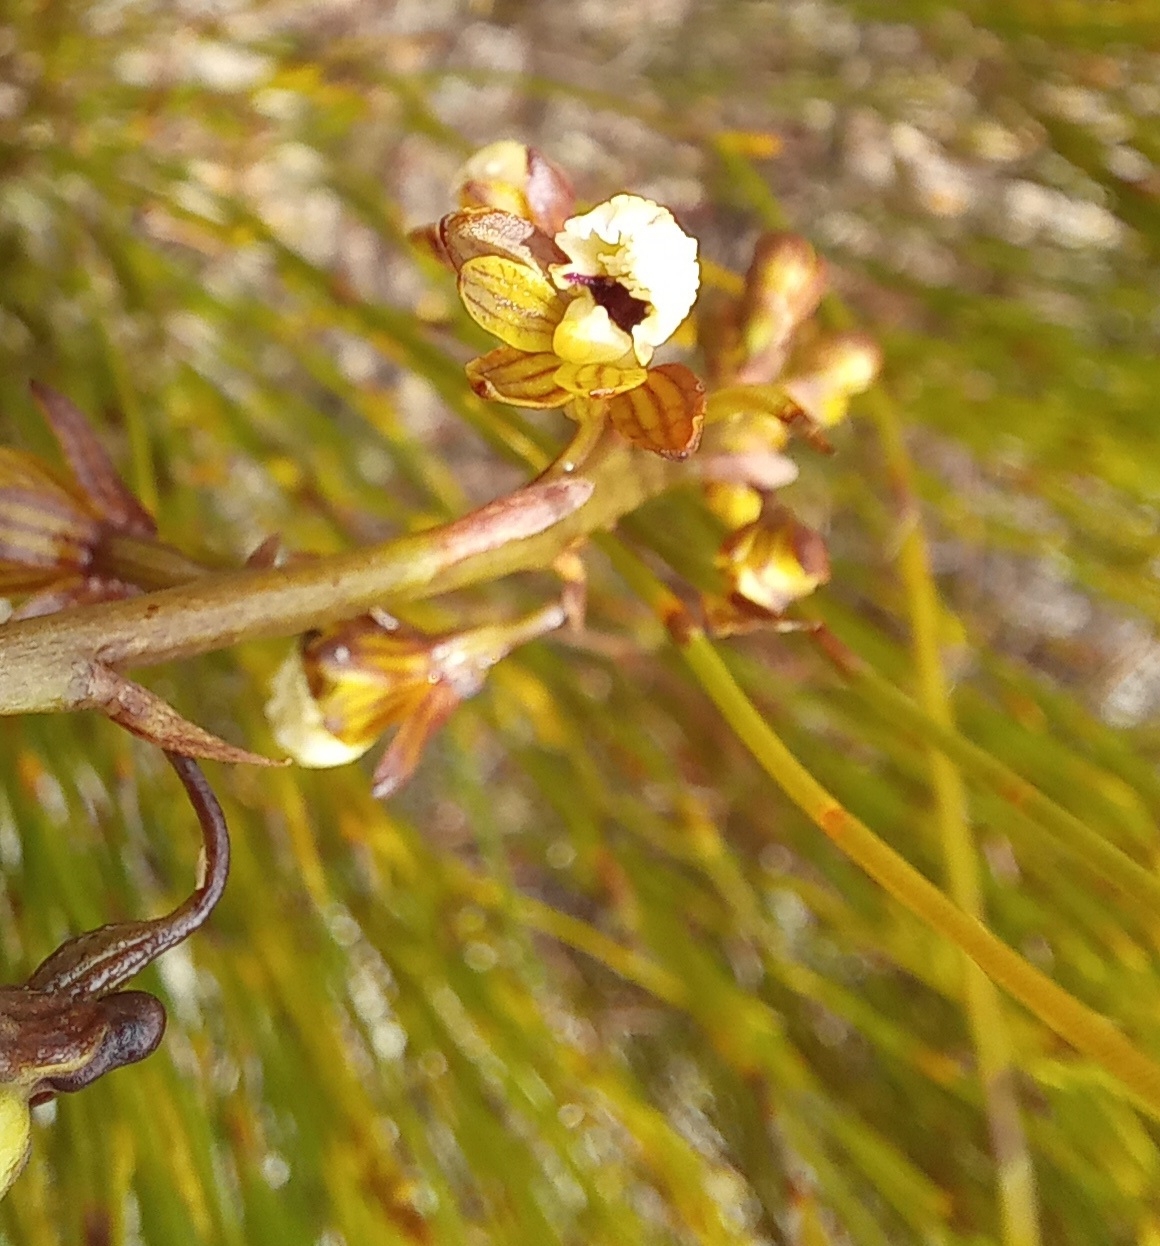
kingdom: Plantae
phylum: Tracheophyta
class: Liliopsida
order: Asparagales
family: Orchidaceae
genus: Eulophia
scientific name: Eulophia cochlearis
